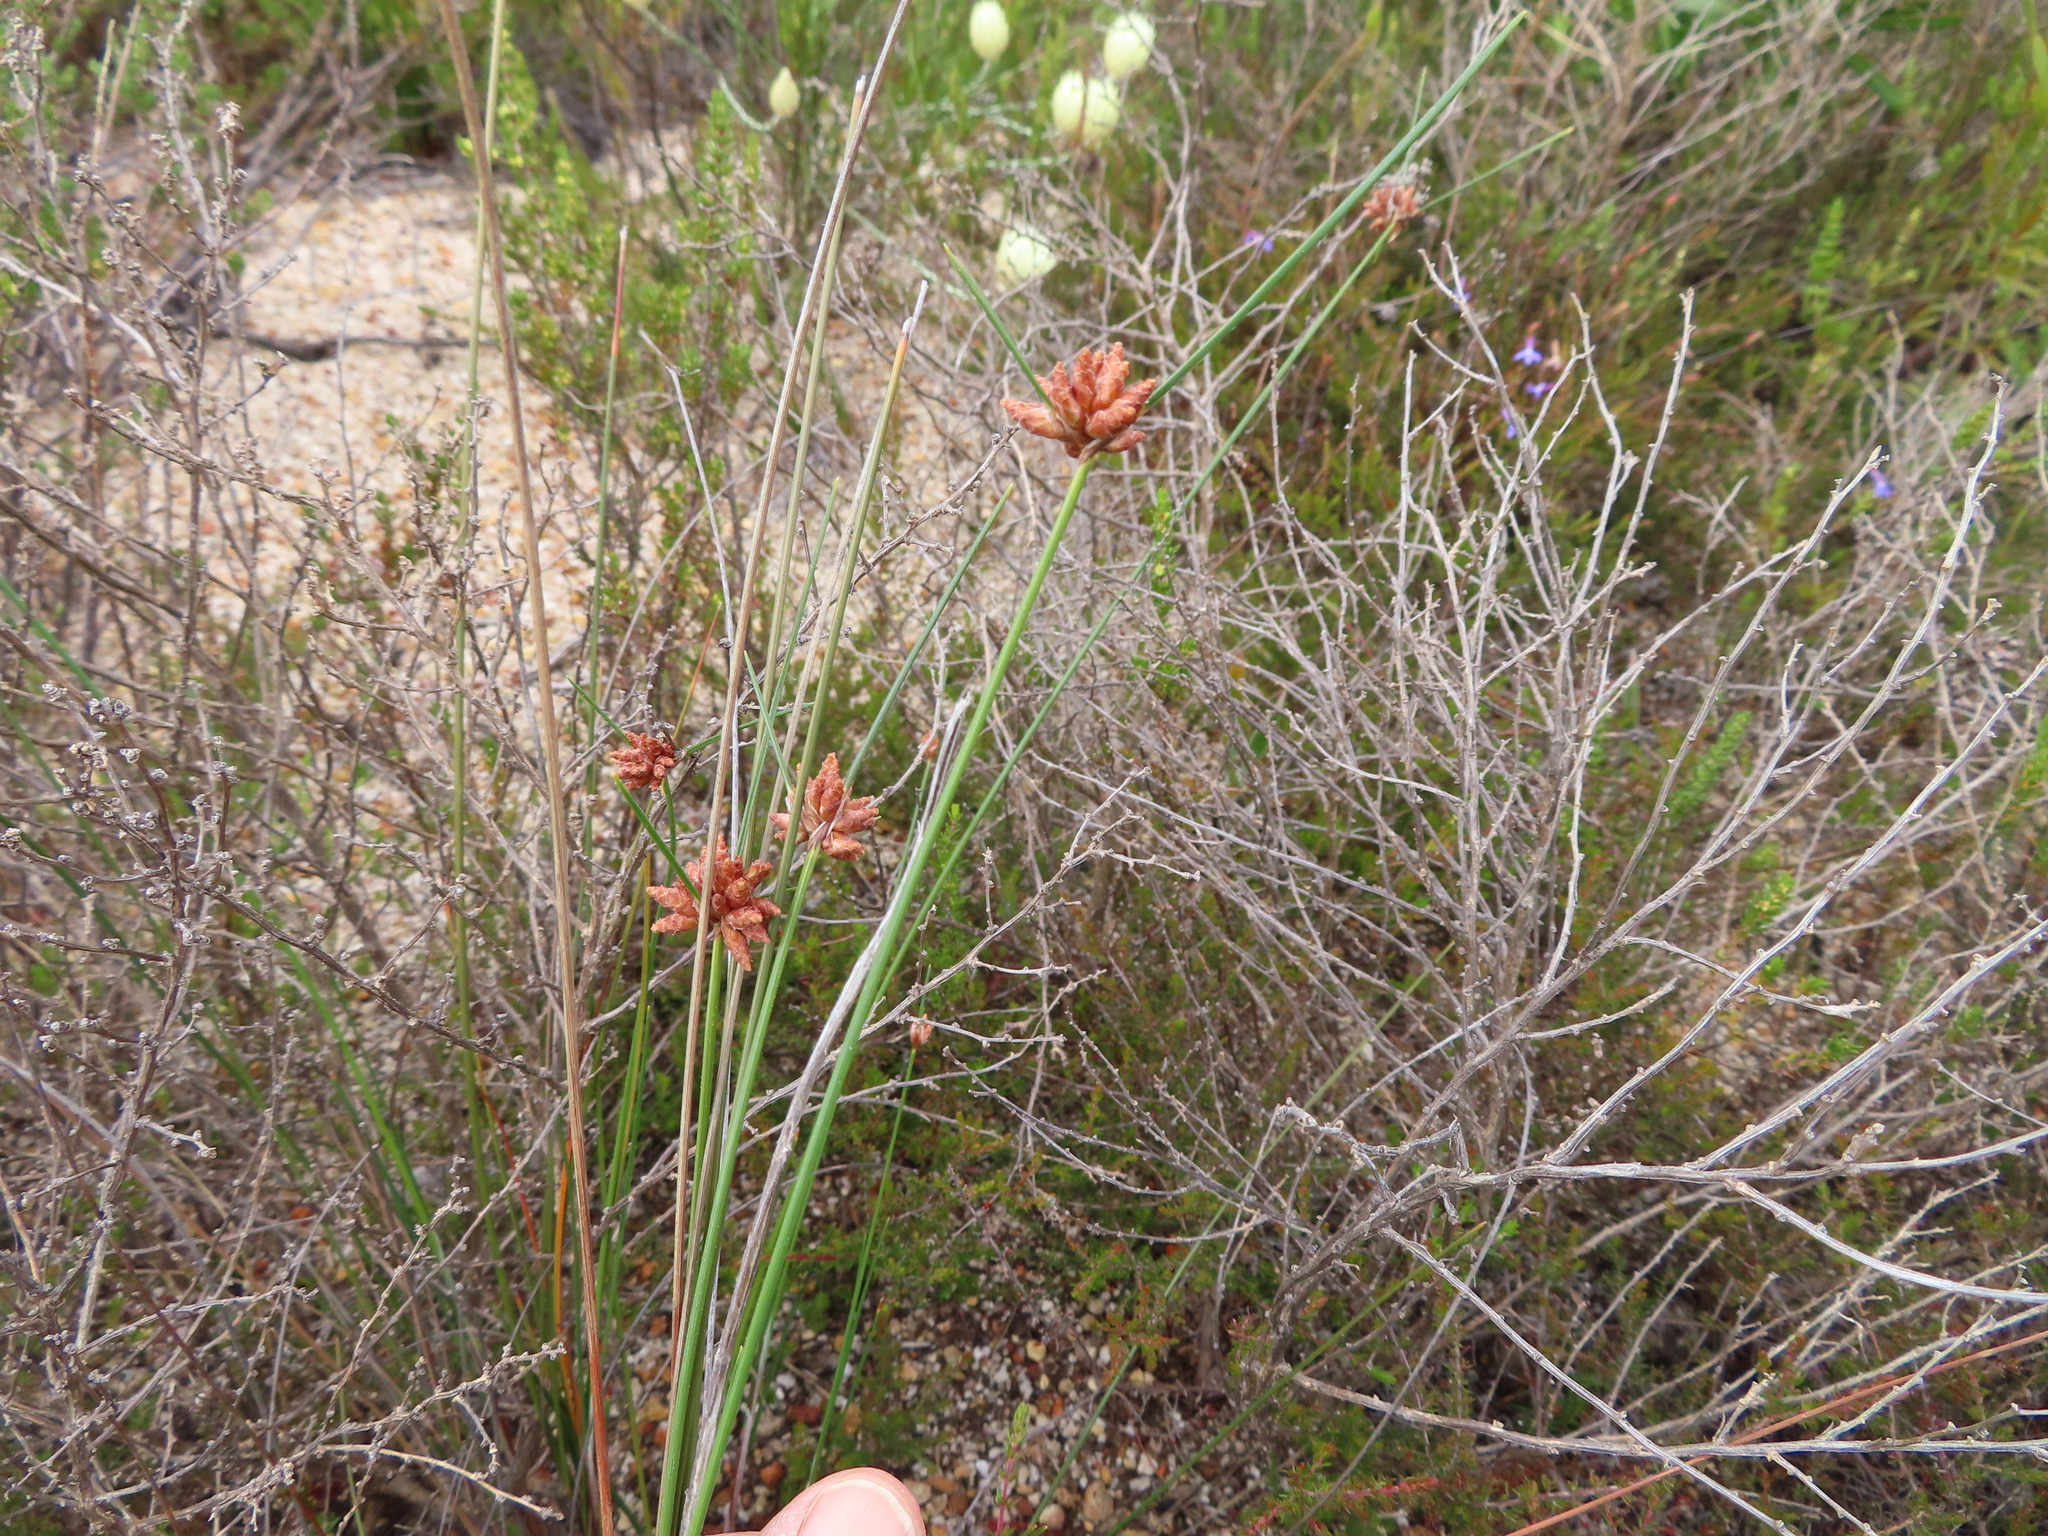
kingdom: Plantae
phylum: Tracheophyta
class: Liliopsida
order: Poales
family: Cyperaceae
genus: Ficinia
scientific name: Ficinia ecklonea
